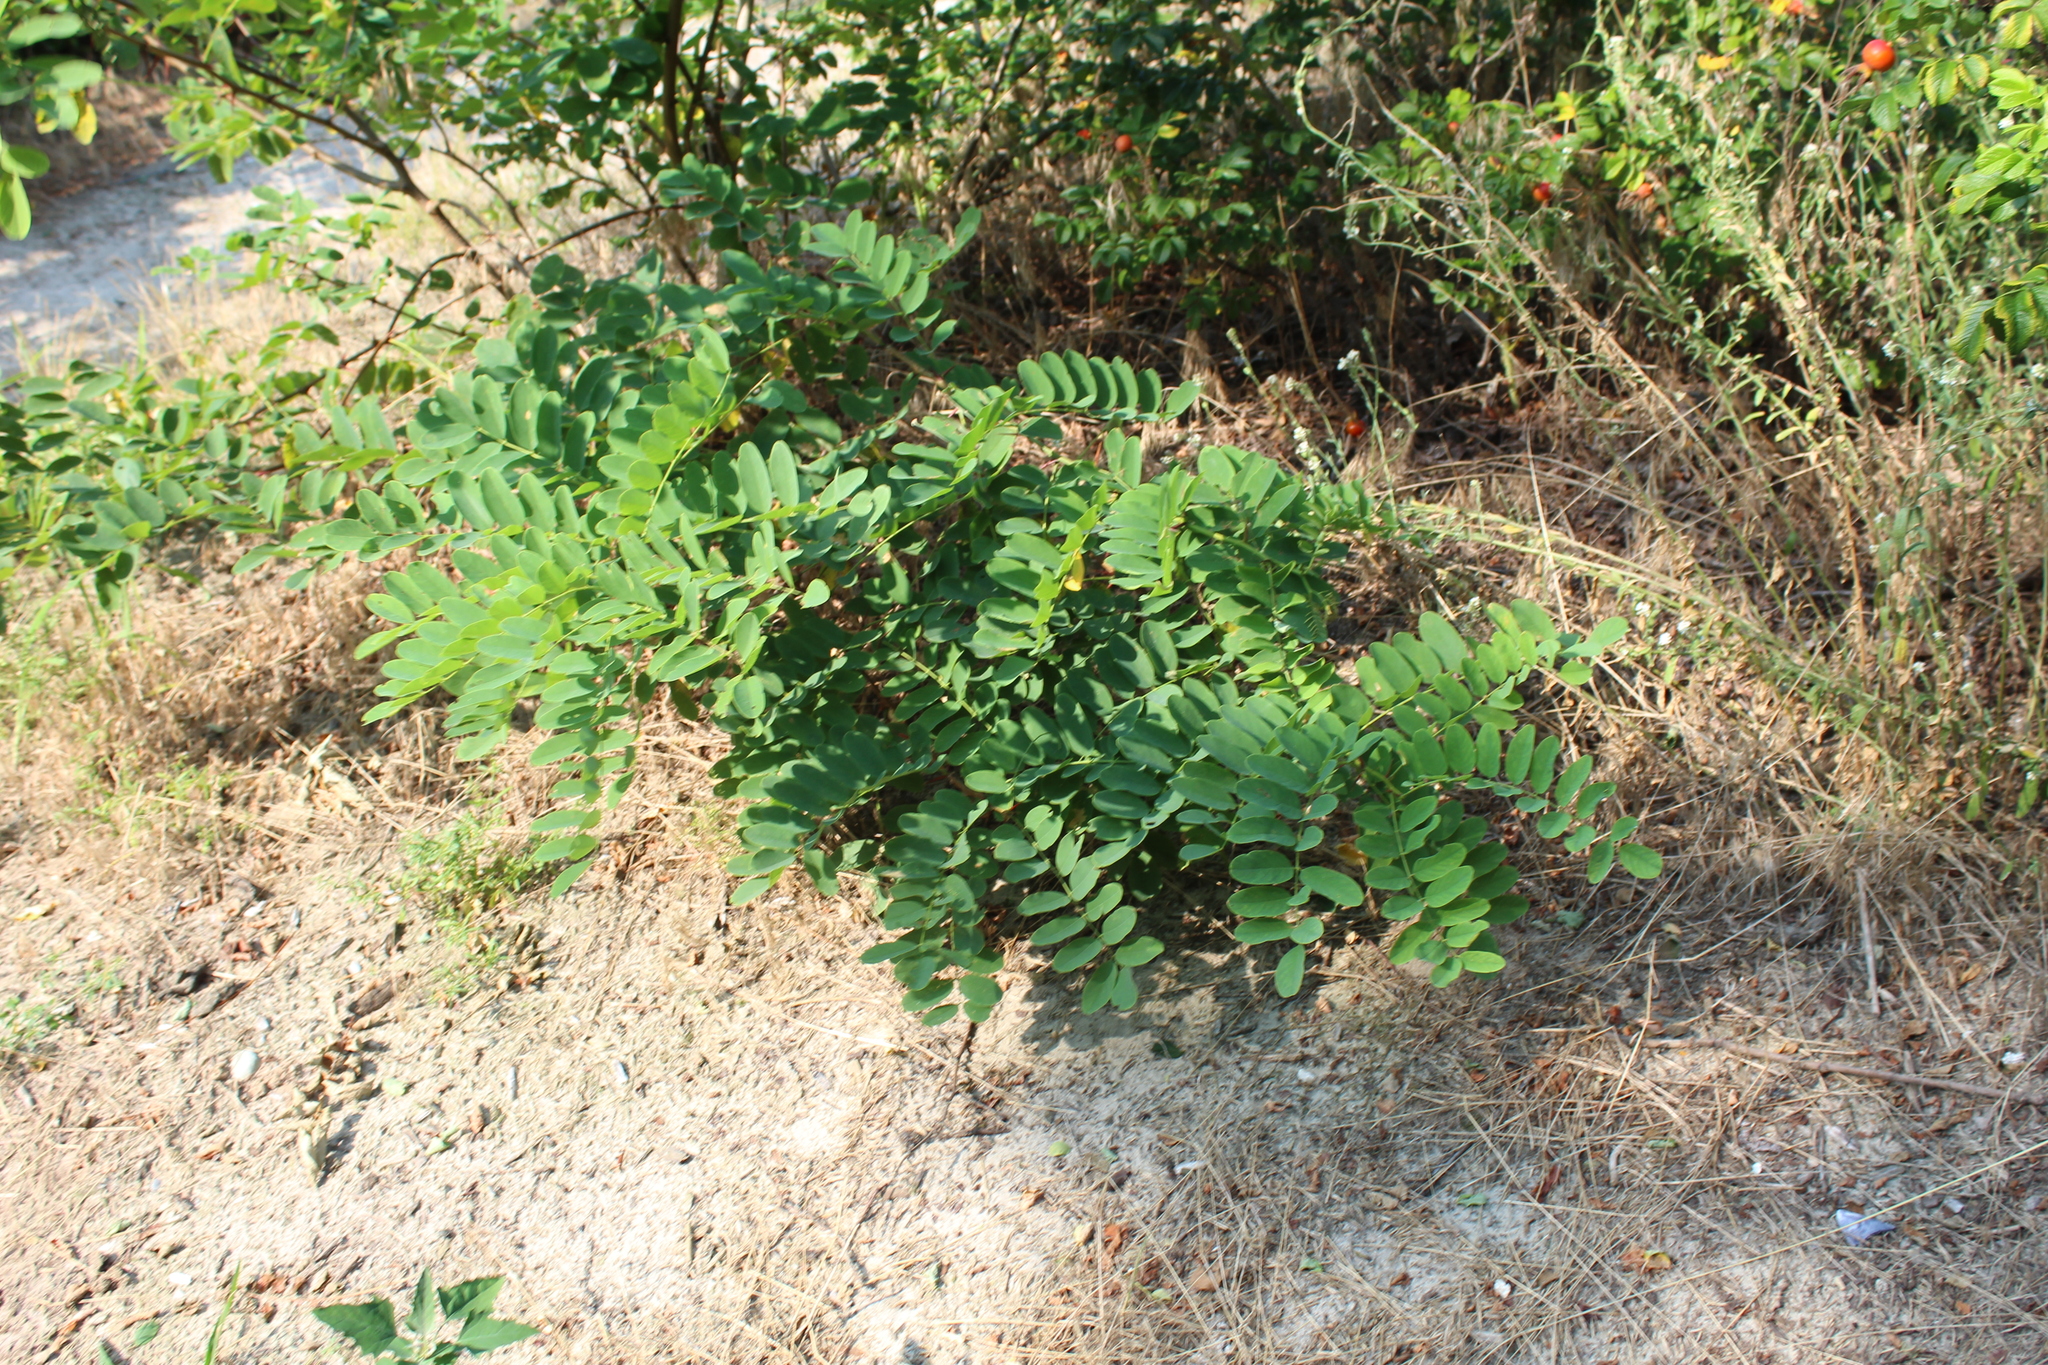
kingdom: Plantae
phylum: Tracheophyta
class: Magnoliopsida
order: Fabales
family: Fabaceae
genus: Robinia
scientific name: Robinia pseudoacacia
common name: Black locust
